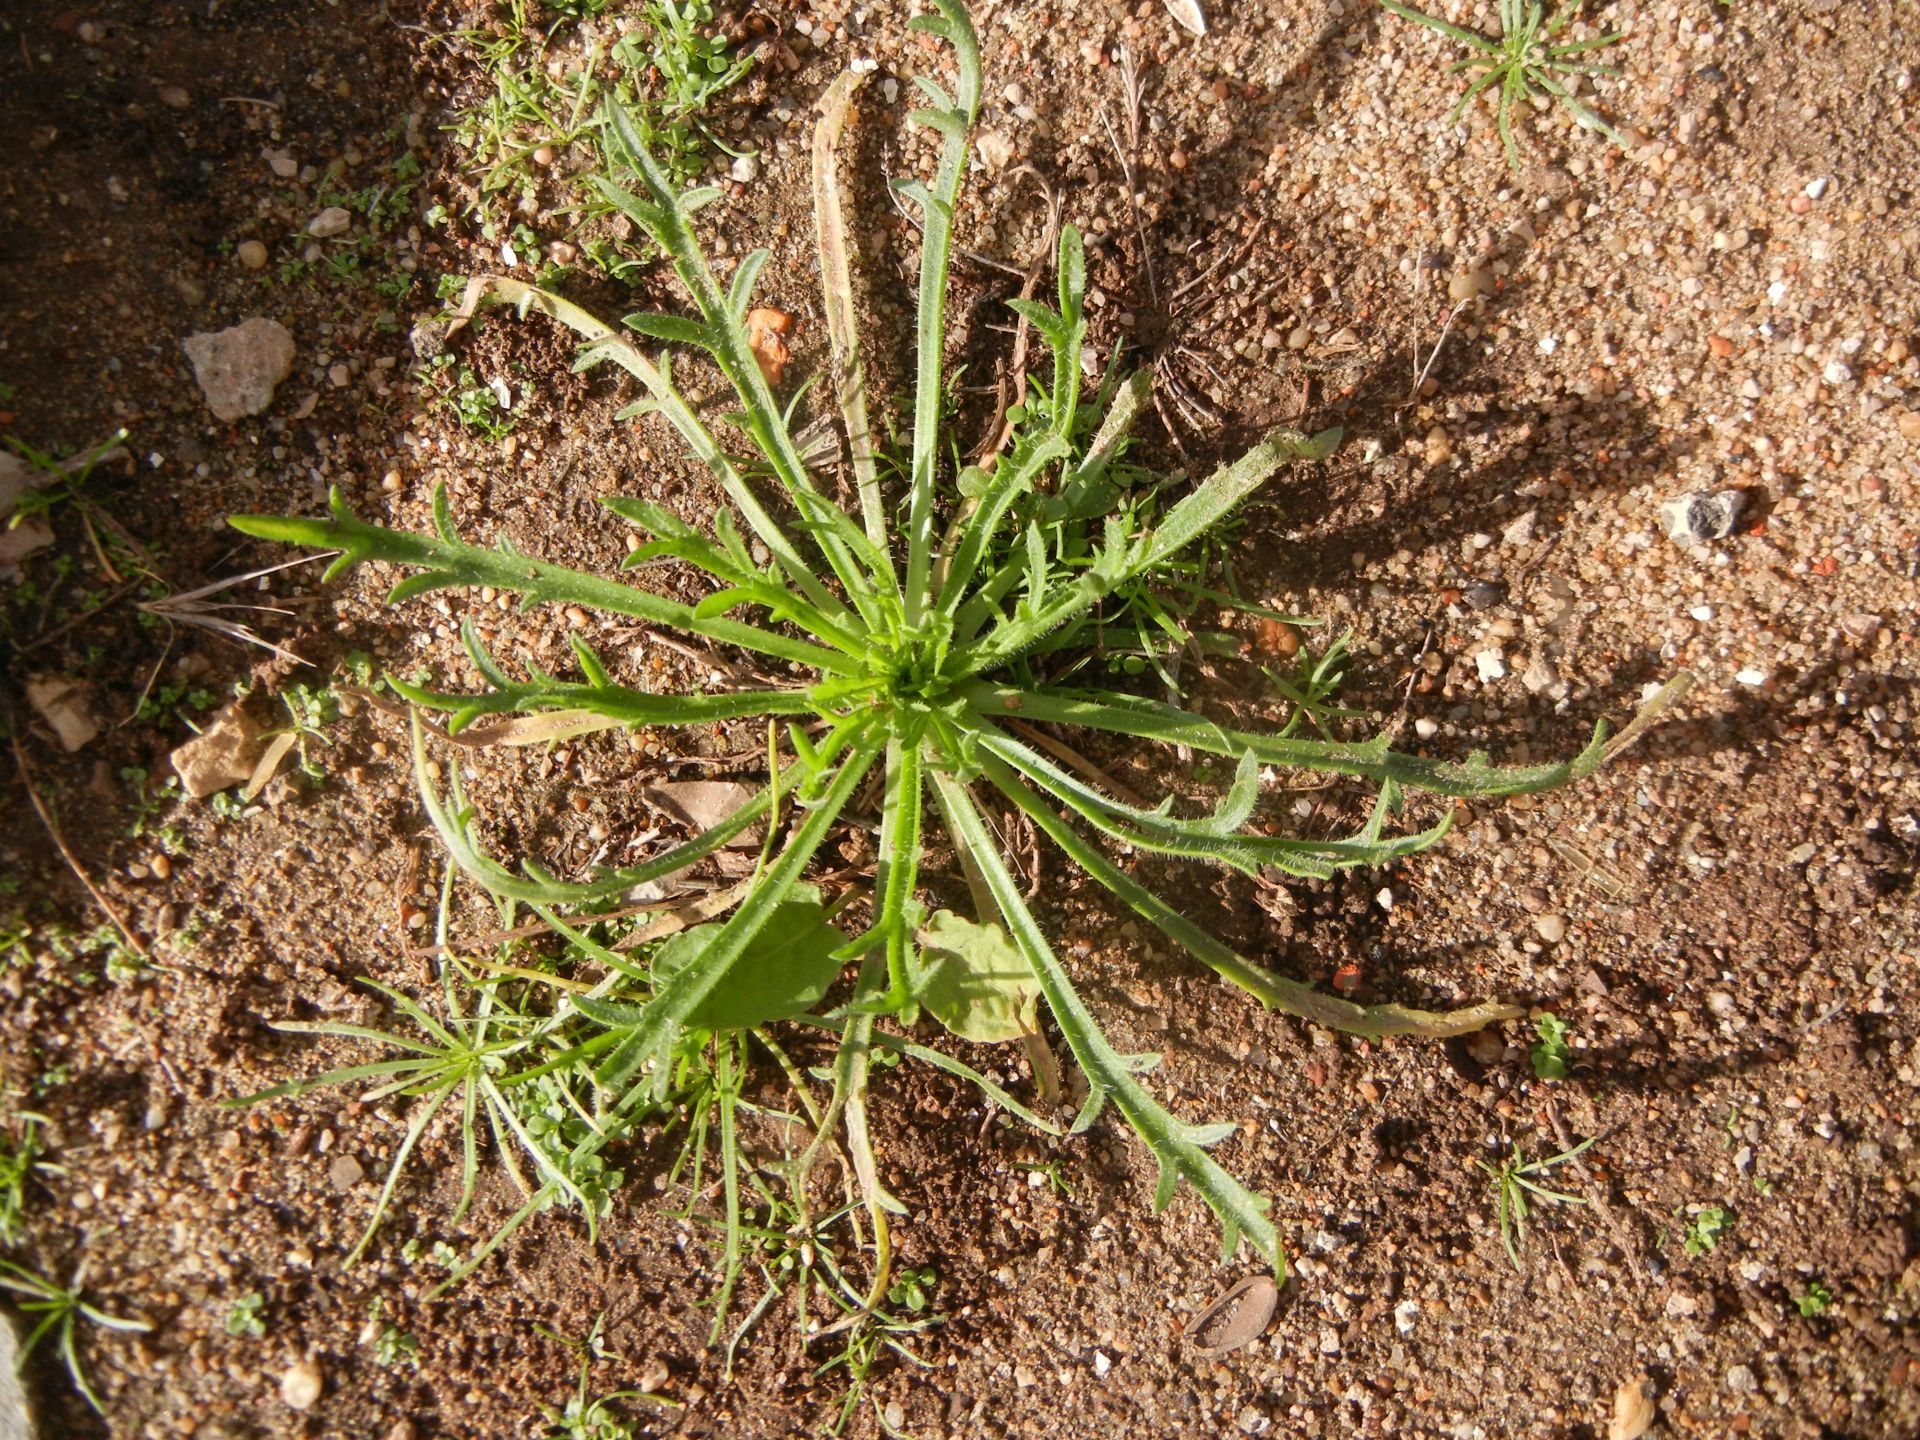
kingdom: Plantae
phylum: Tracheophyta
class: Magnoliopsida
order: Lamiales
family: Plantaginaceae
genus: Plantago
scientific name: Plantago coronopus
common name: Buck's-horn plantain
